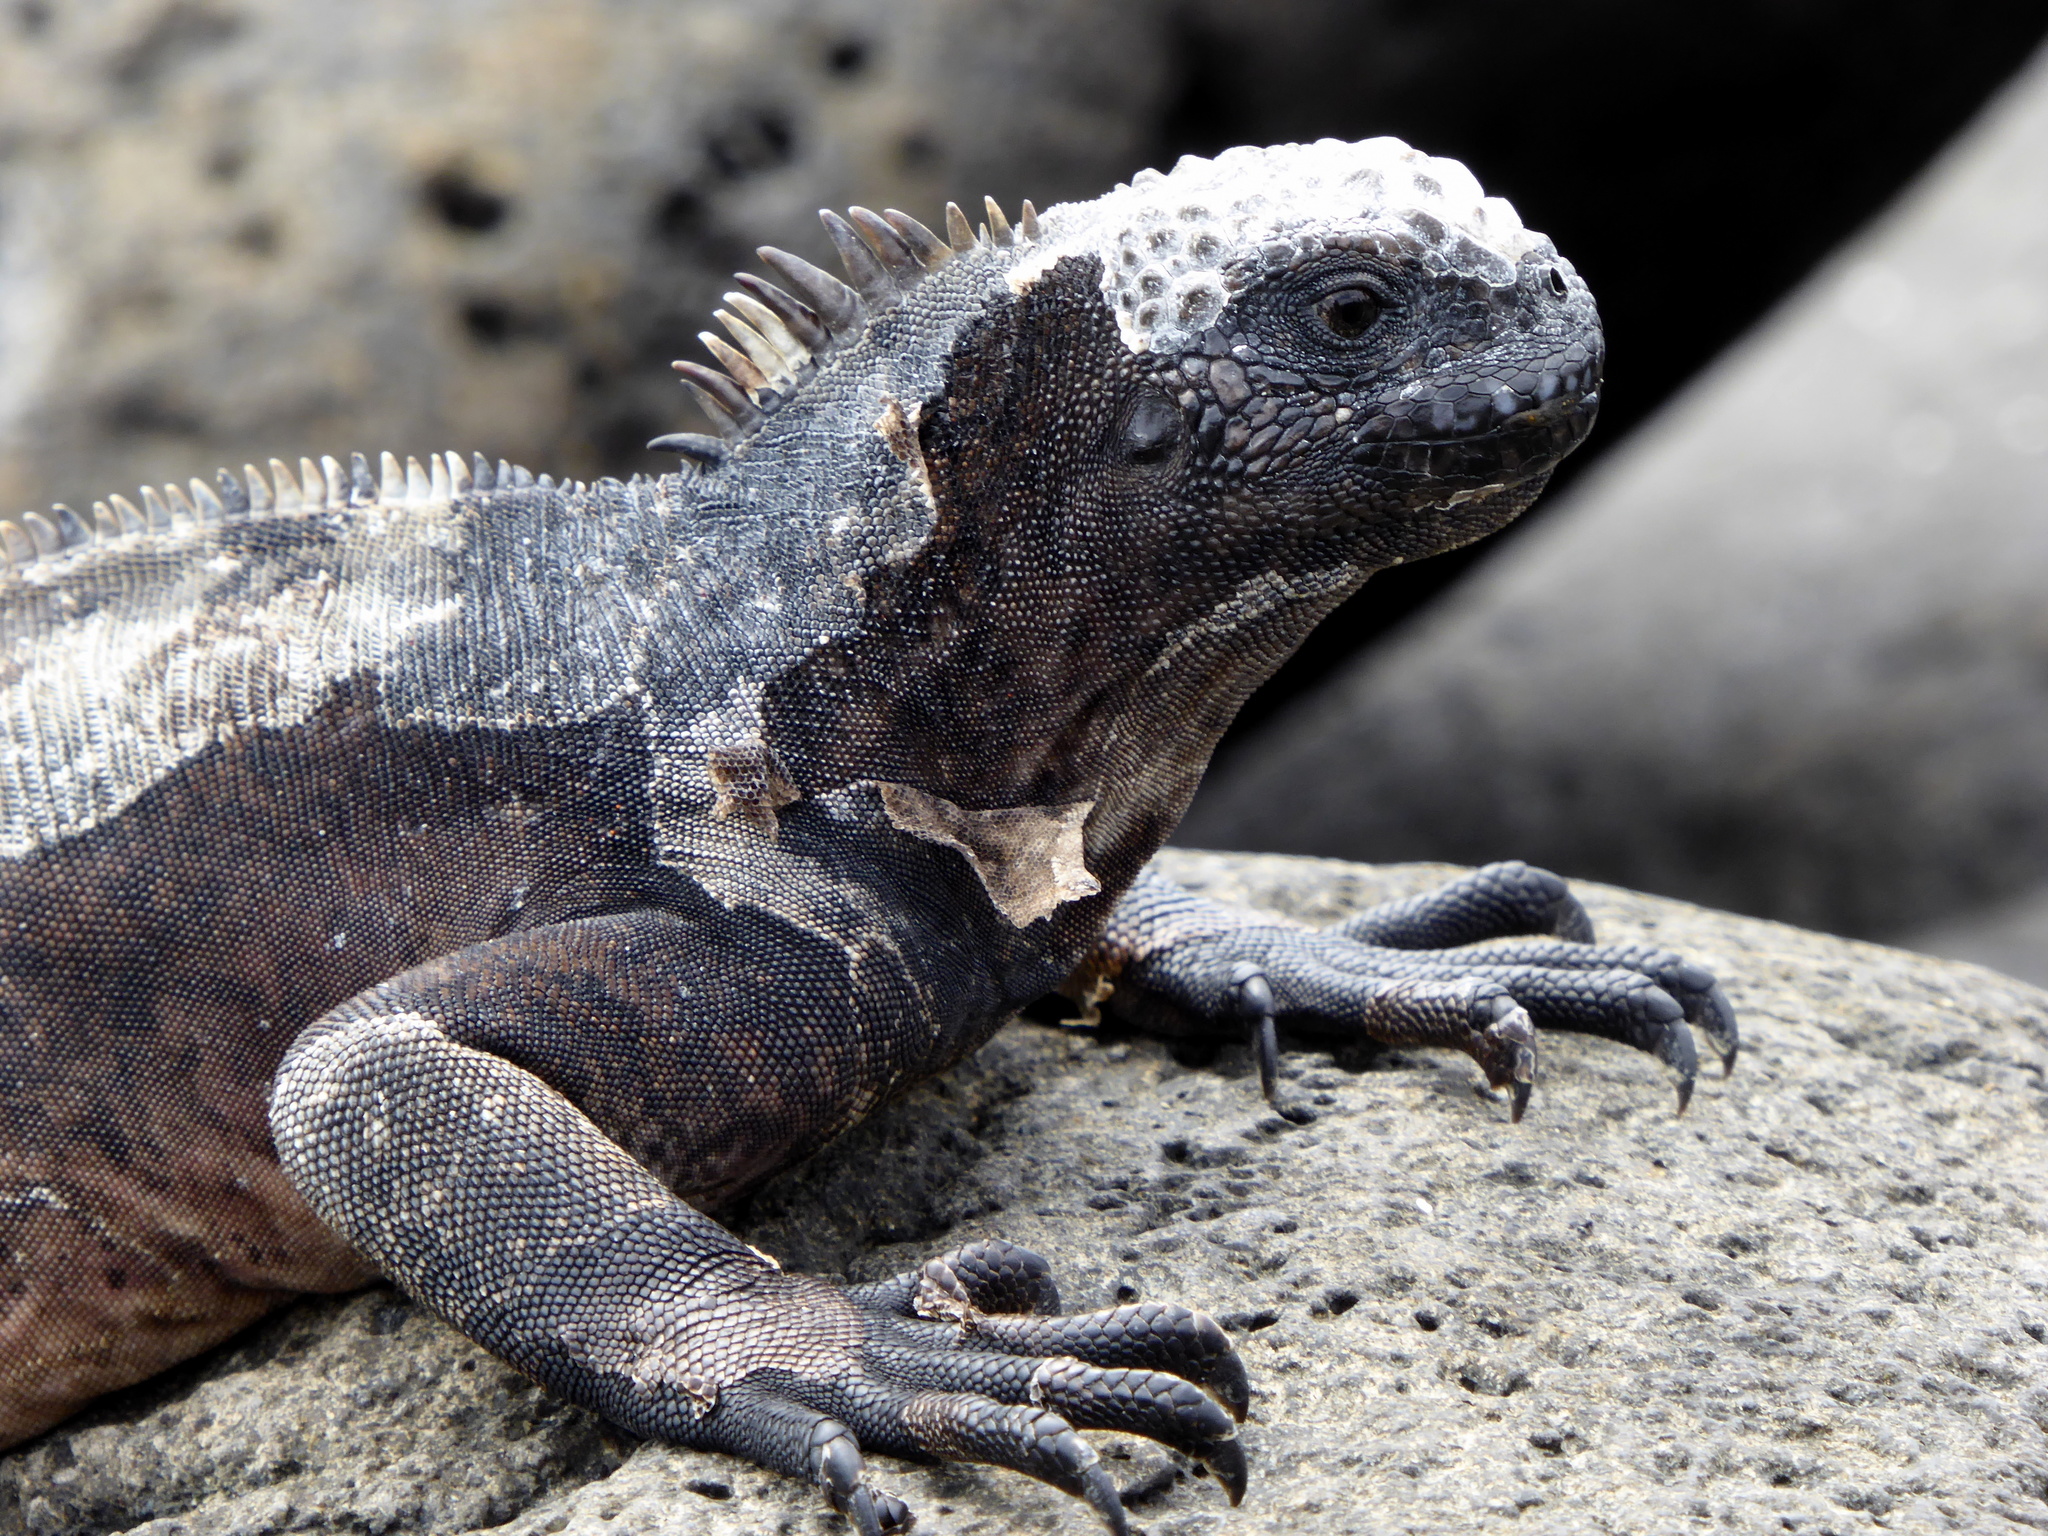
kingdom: Animalia
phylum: Chordata
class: Squamata
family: Iguanidae
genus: Amblyrhynchus
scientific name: Amblyrhynchus cristatus
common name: Marine iguana
